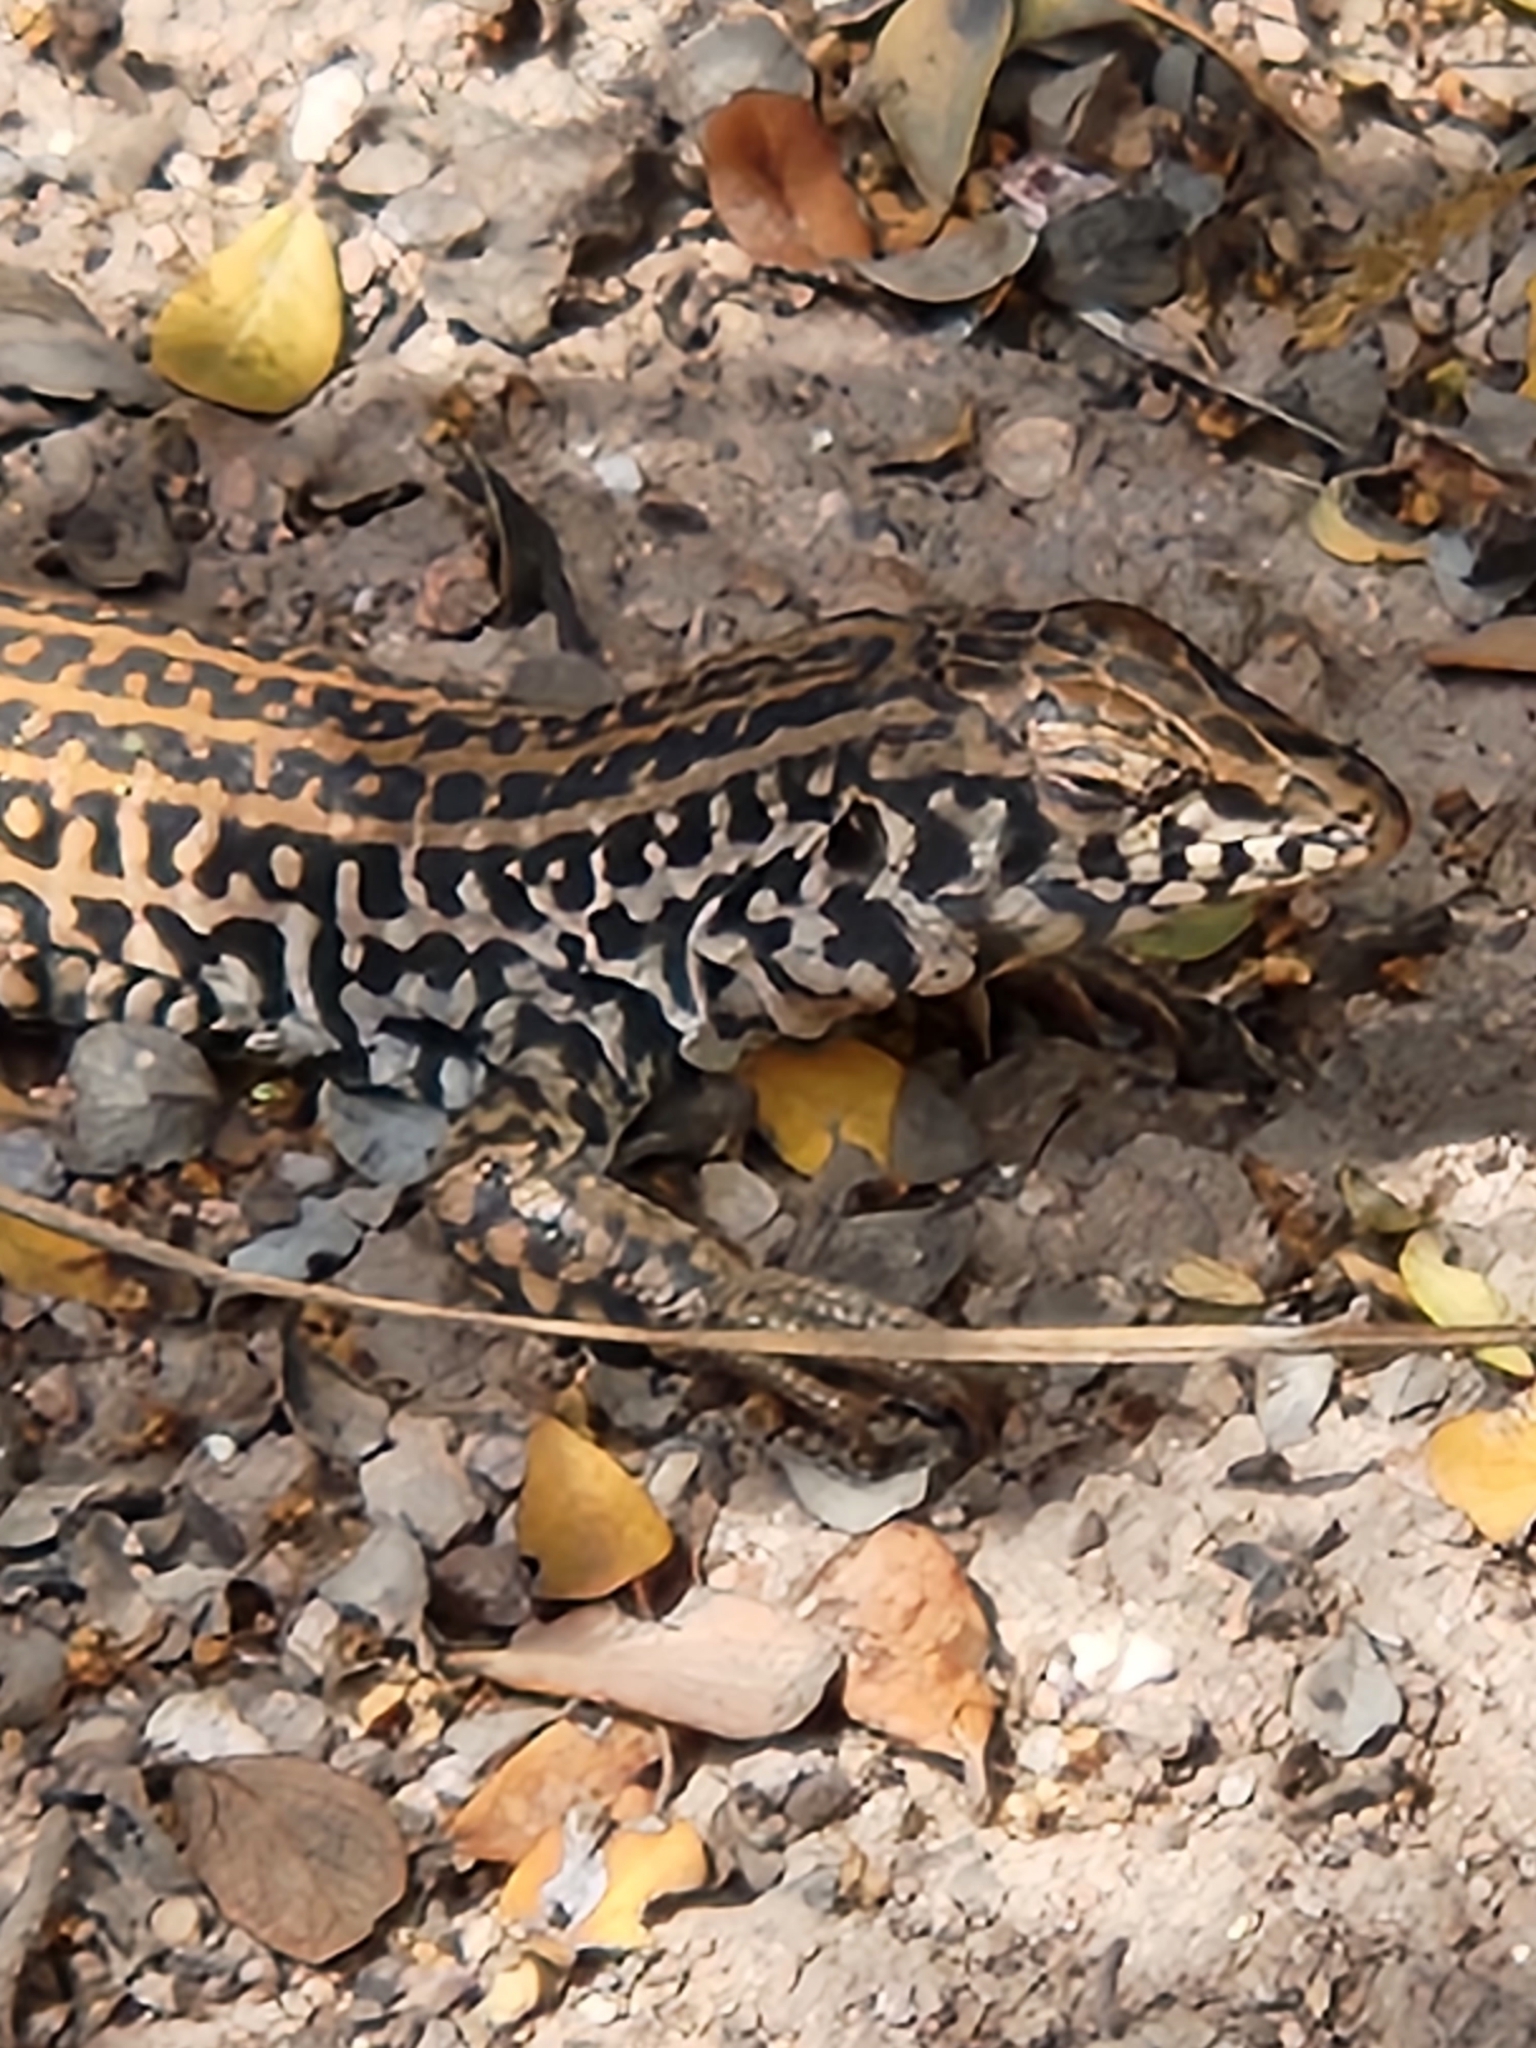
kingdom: Animalia
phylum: Chordata
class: Squamata
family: Teiidae
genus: Aspidoscelis
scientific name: Aspidoscelis tigris
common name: Tiger whiptail
